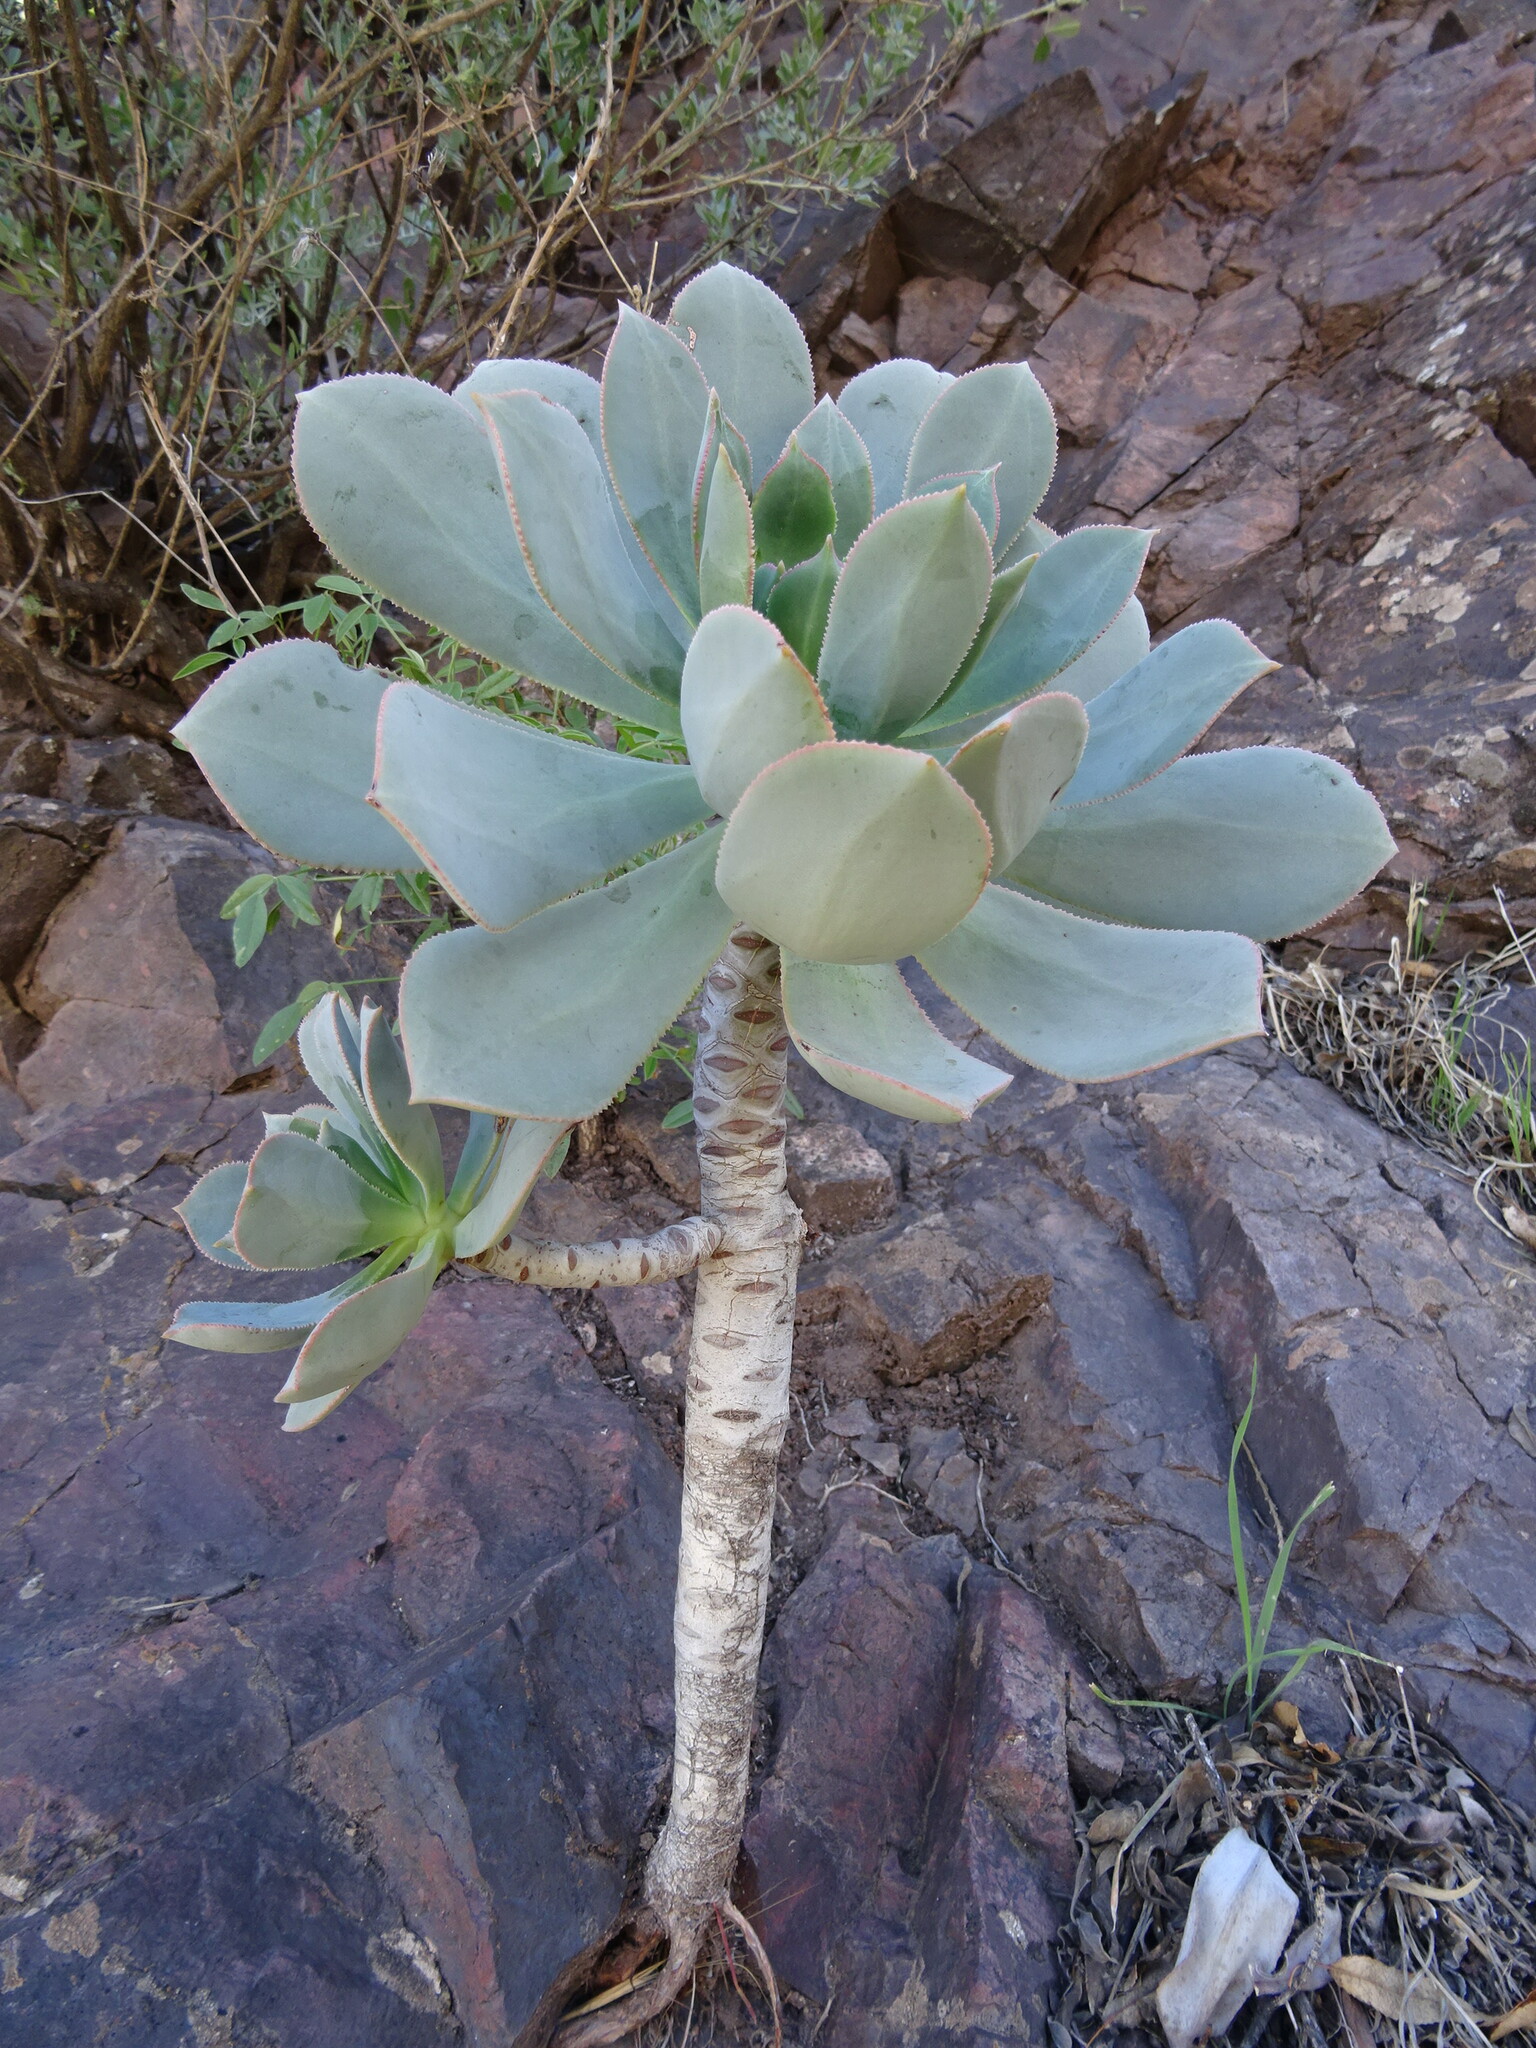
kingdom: Plantae
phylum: Tracheophyta
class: Magnoliopsida
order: Saxifragales
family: Crassulaceae
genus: Aeonium
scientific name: Aeonium percarneum
